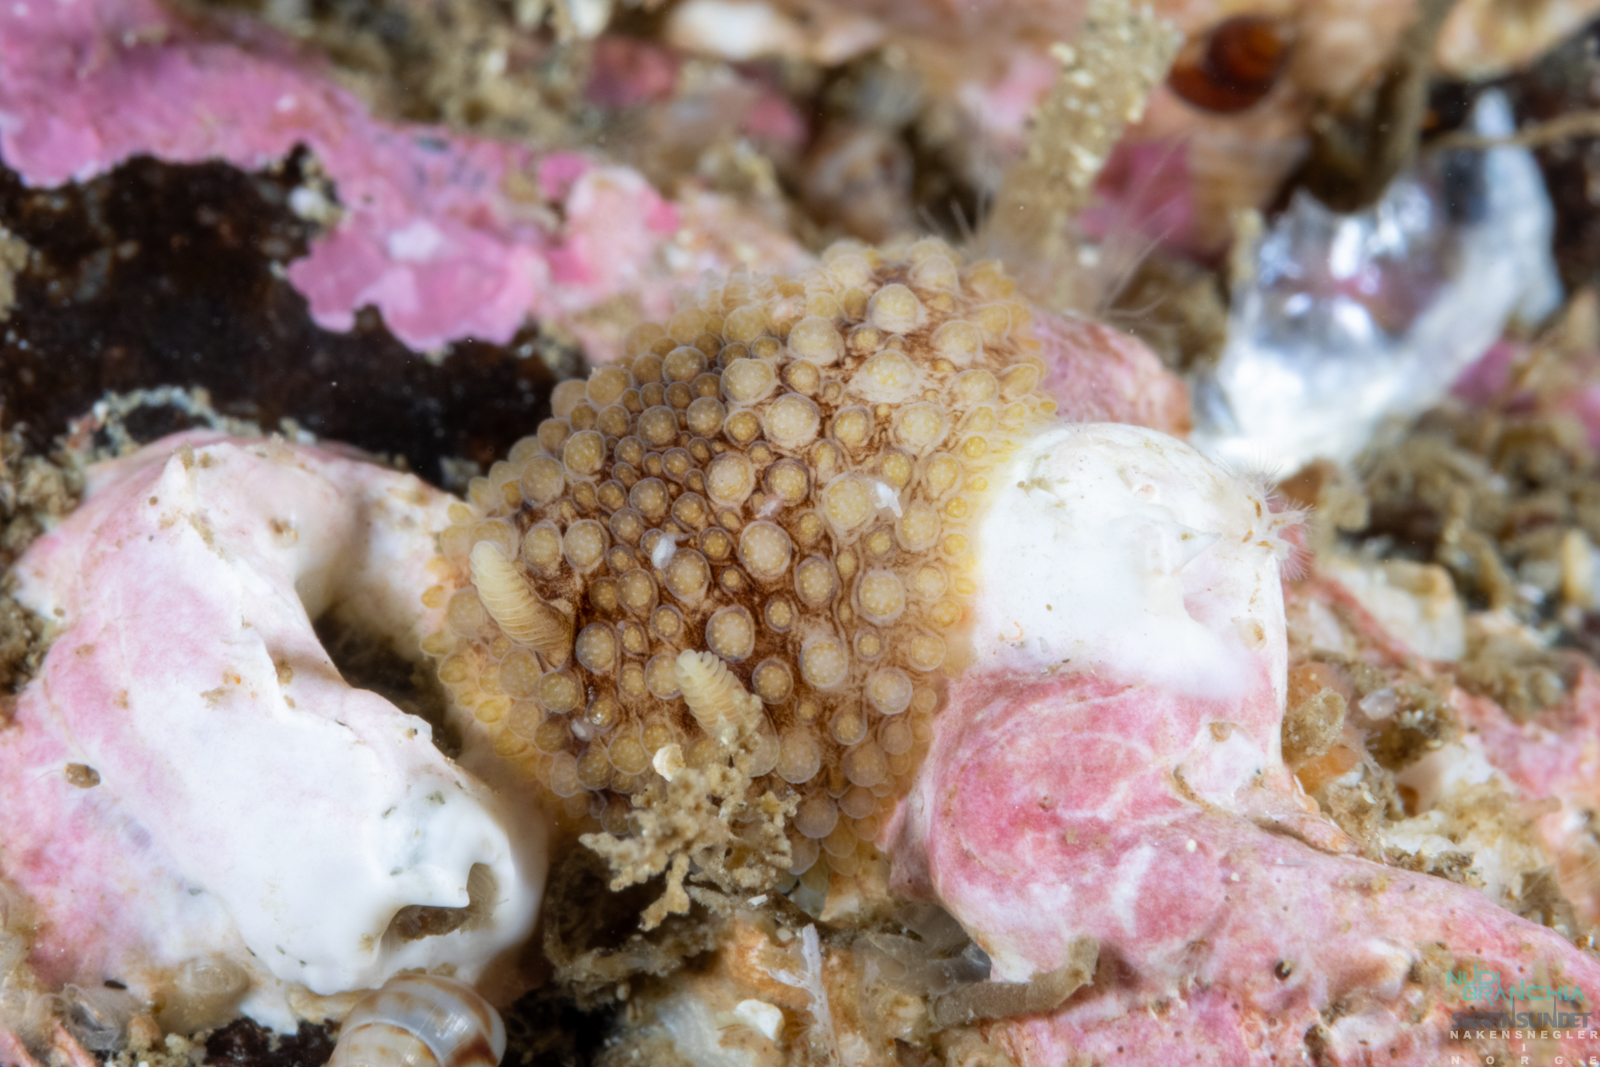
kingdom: Animalia
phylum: Mollusca
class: Gastropoda
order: Nudibranchia
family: Onchidorididae
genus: Onchidoris
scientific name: Onchidoris bilamellata
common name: Barnacle-eating onchidoris
